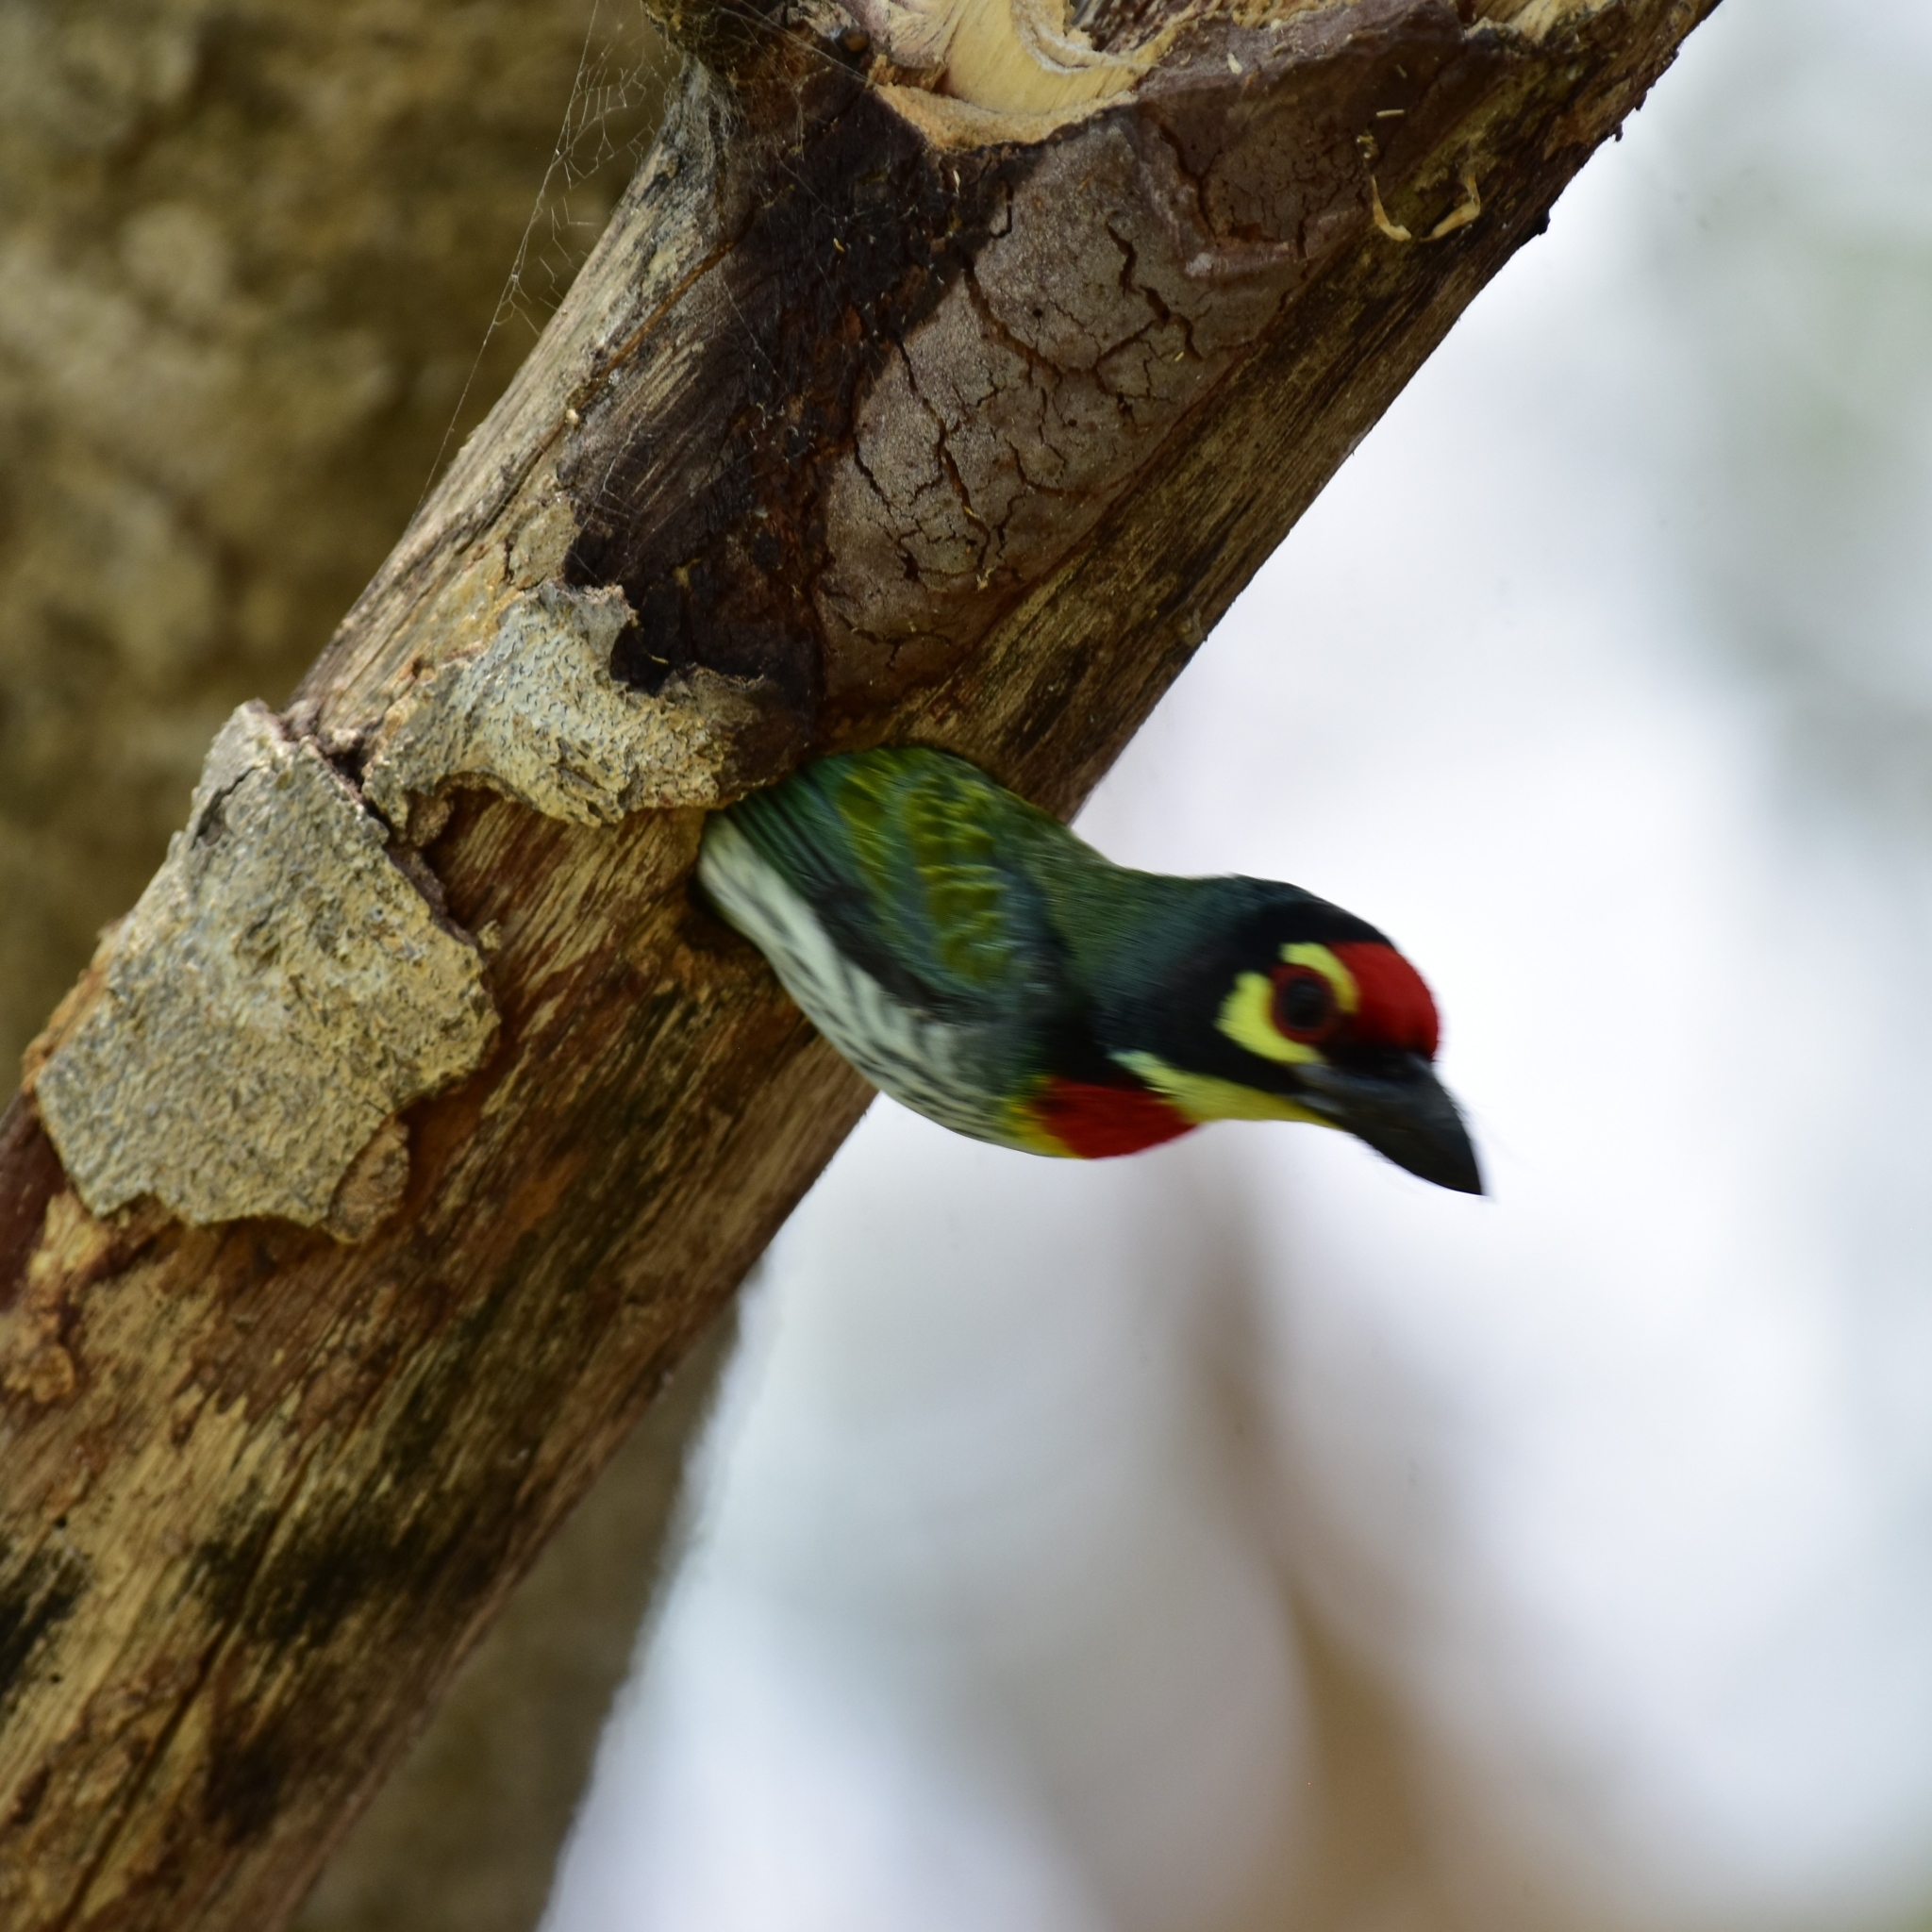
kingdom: Animalia
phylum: Chordata
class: Aves
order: Piciformes
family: Megalaimidae
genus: Psilopogon
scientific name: Psilopogon haemacephalus
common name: Coppersmith barbet
